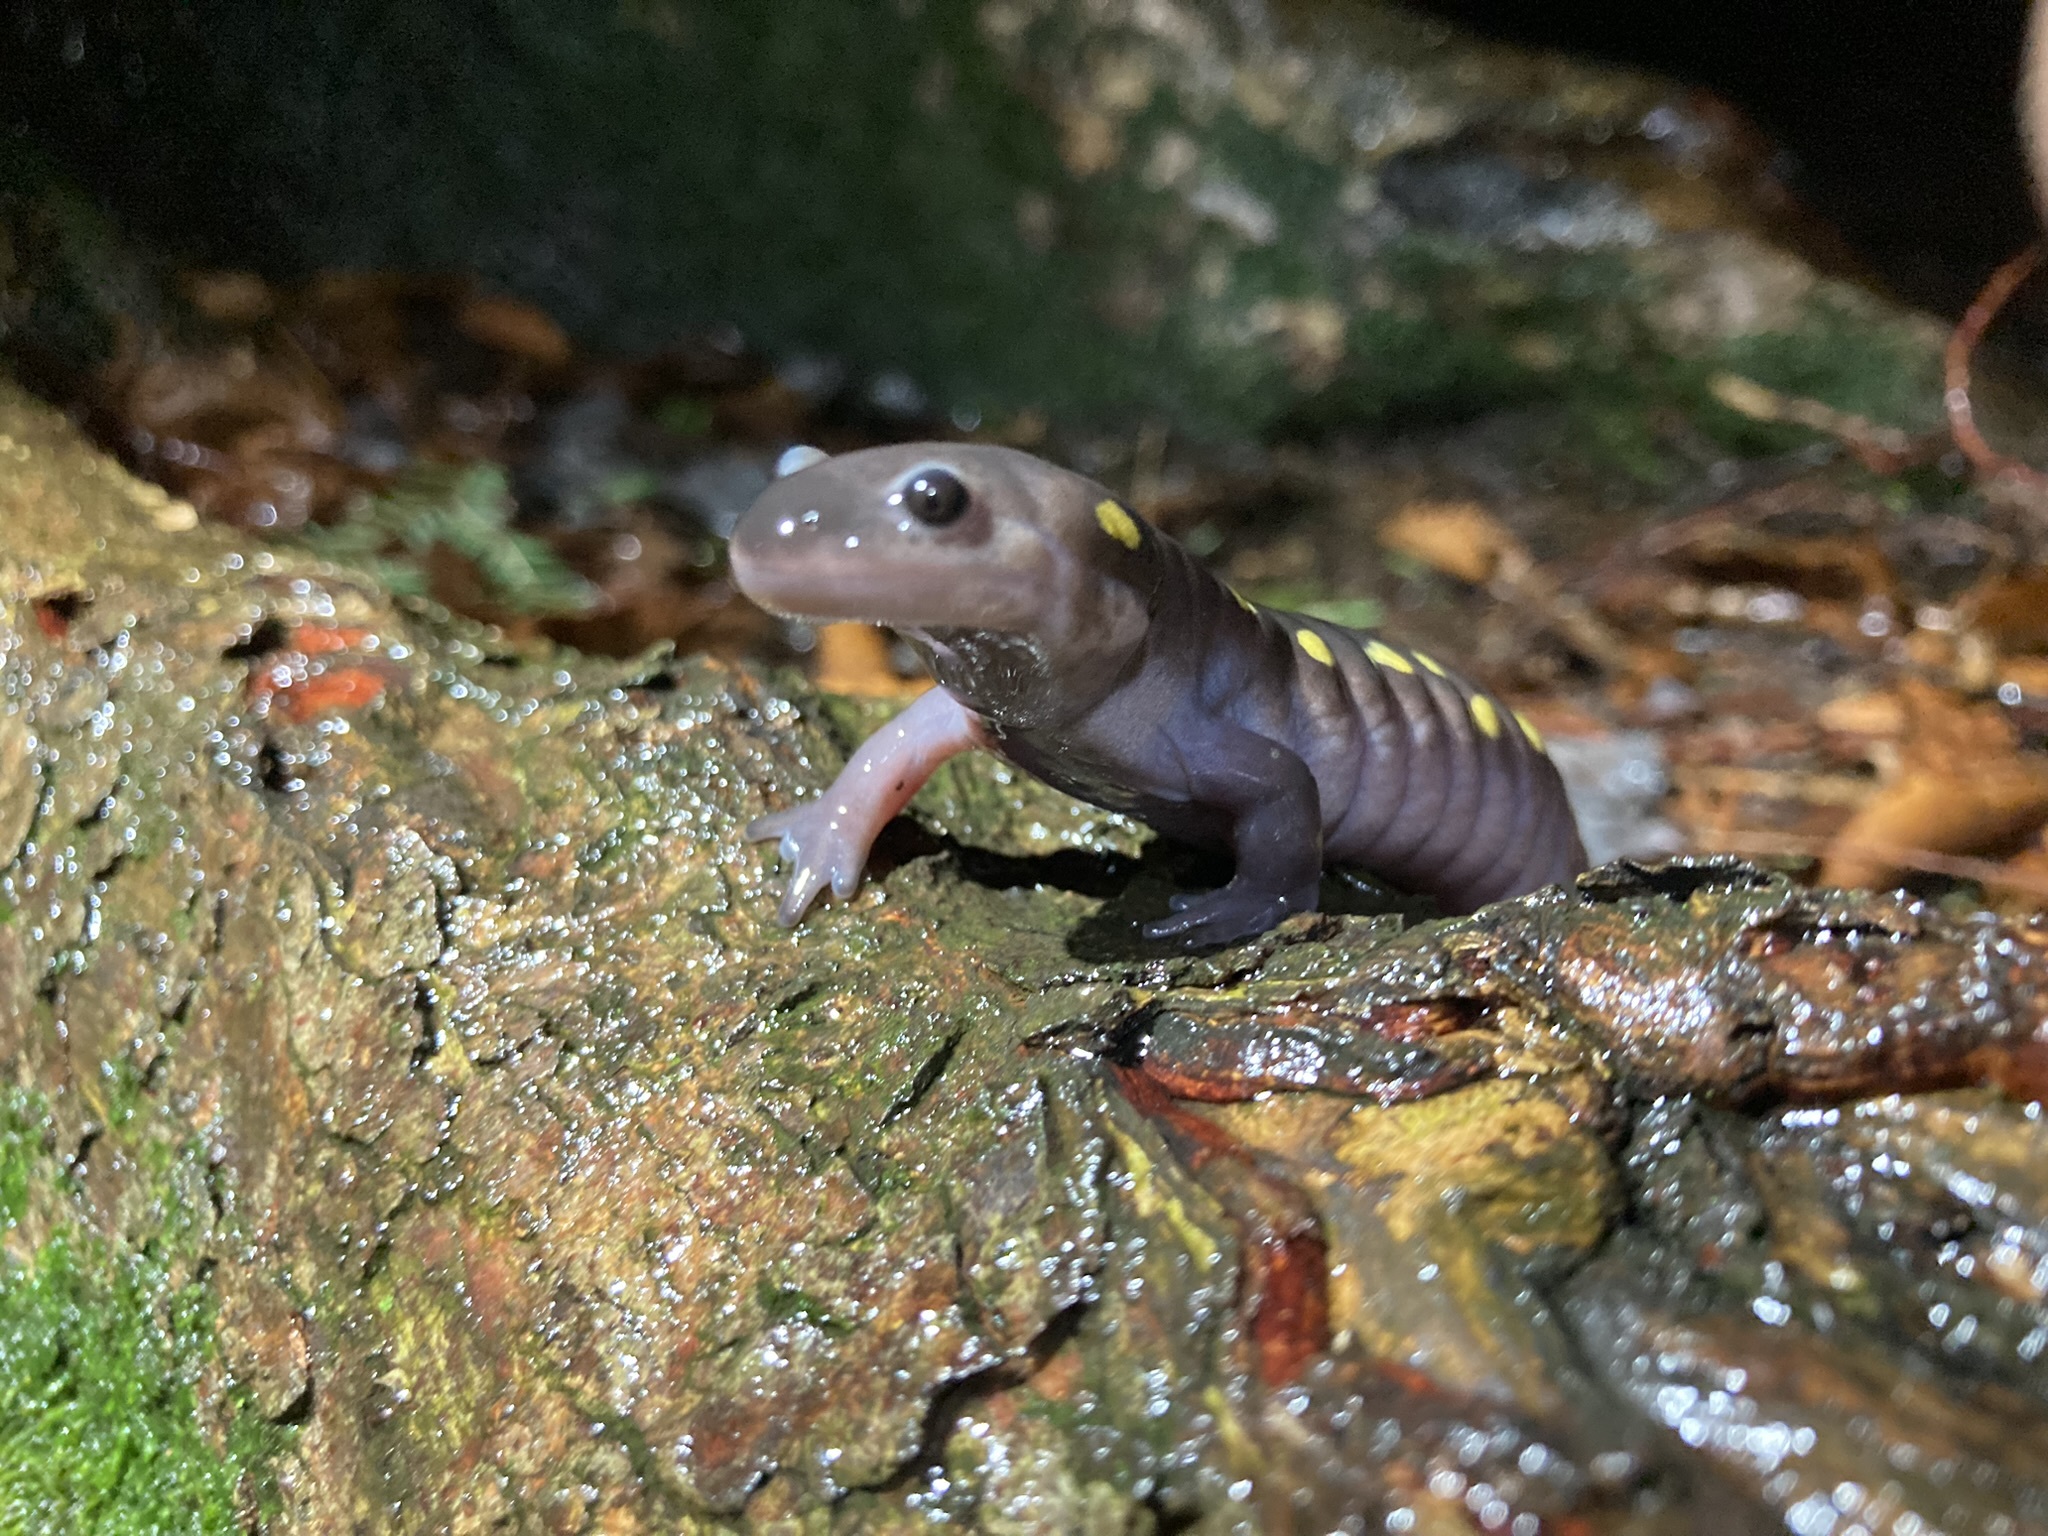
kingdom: Animalia
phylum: Chordata
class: Amphibia
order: Caudata
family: Ambystomatidae
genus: Ambystoma
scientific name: Ambystoma maculatum
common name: Spotted salamander
